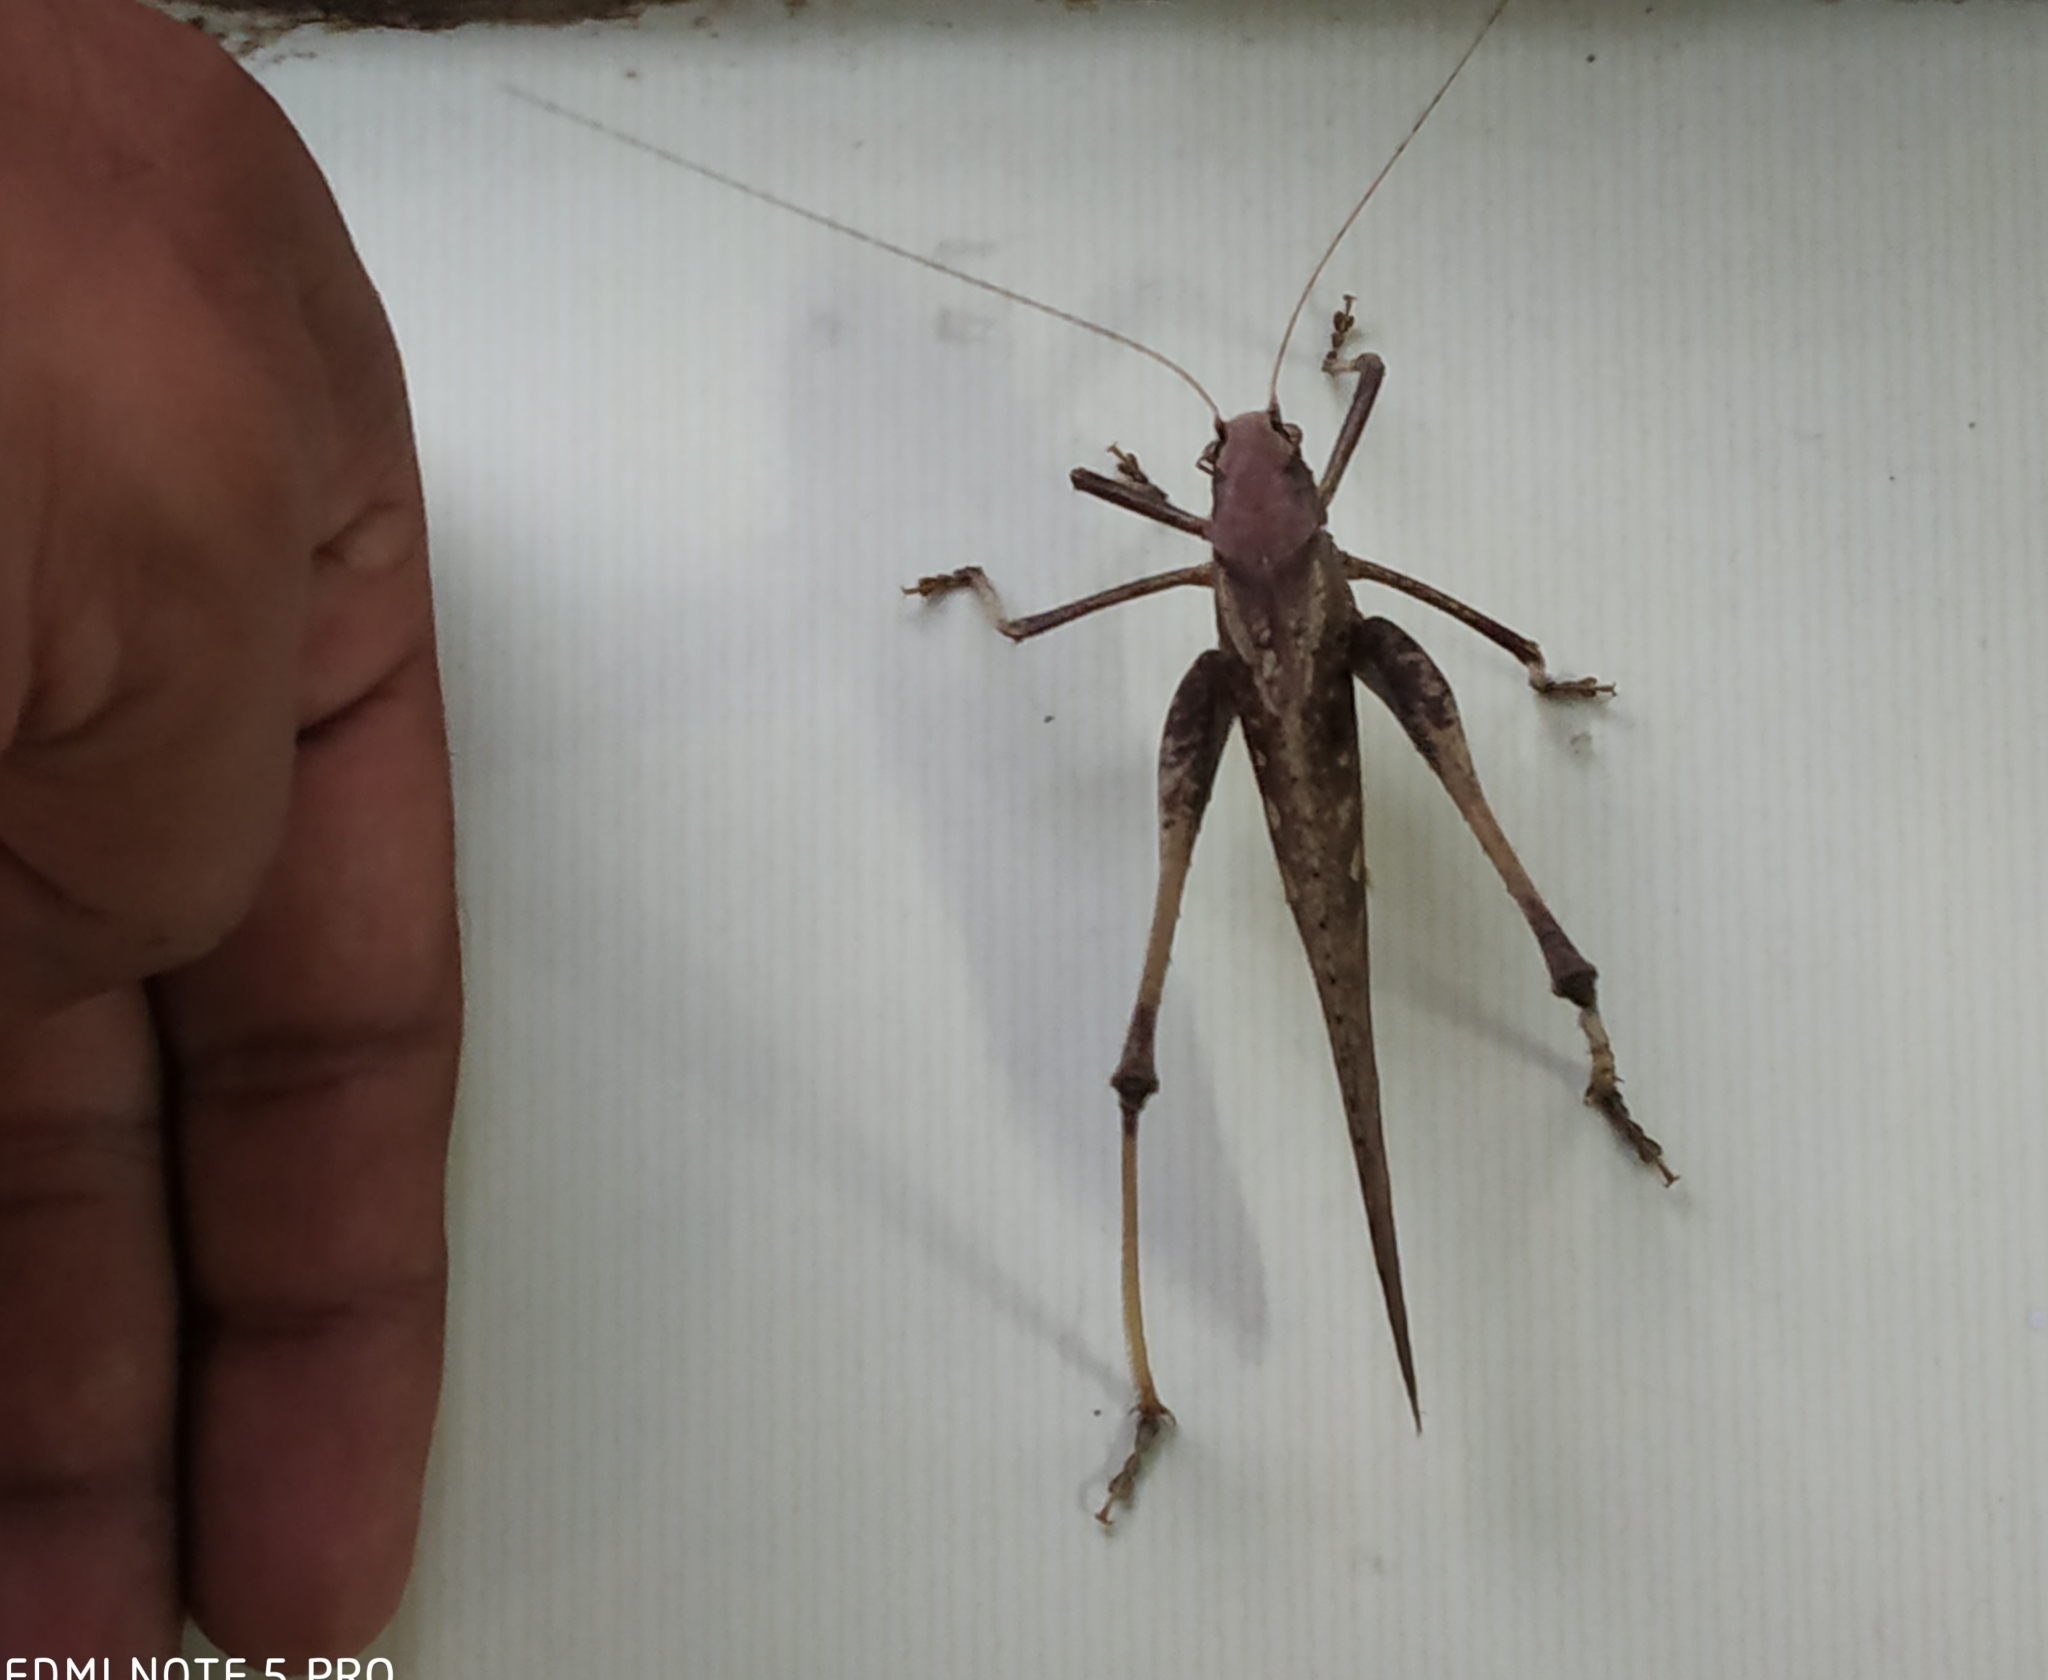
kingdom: Animalia
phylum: Arthropoda
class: Insecta
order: Orthoptera
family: Tettigoniidae
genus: Mecopoda
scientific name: Mecopoda elongata
